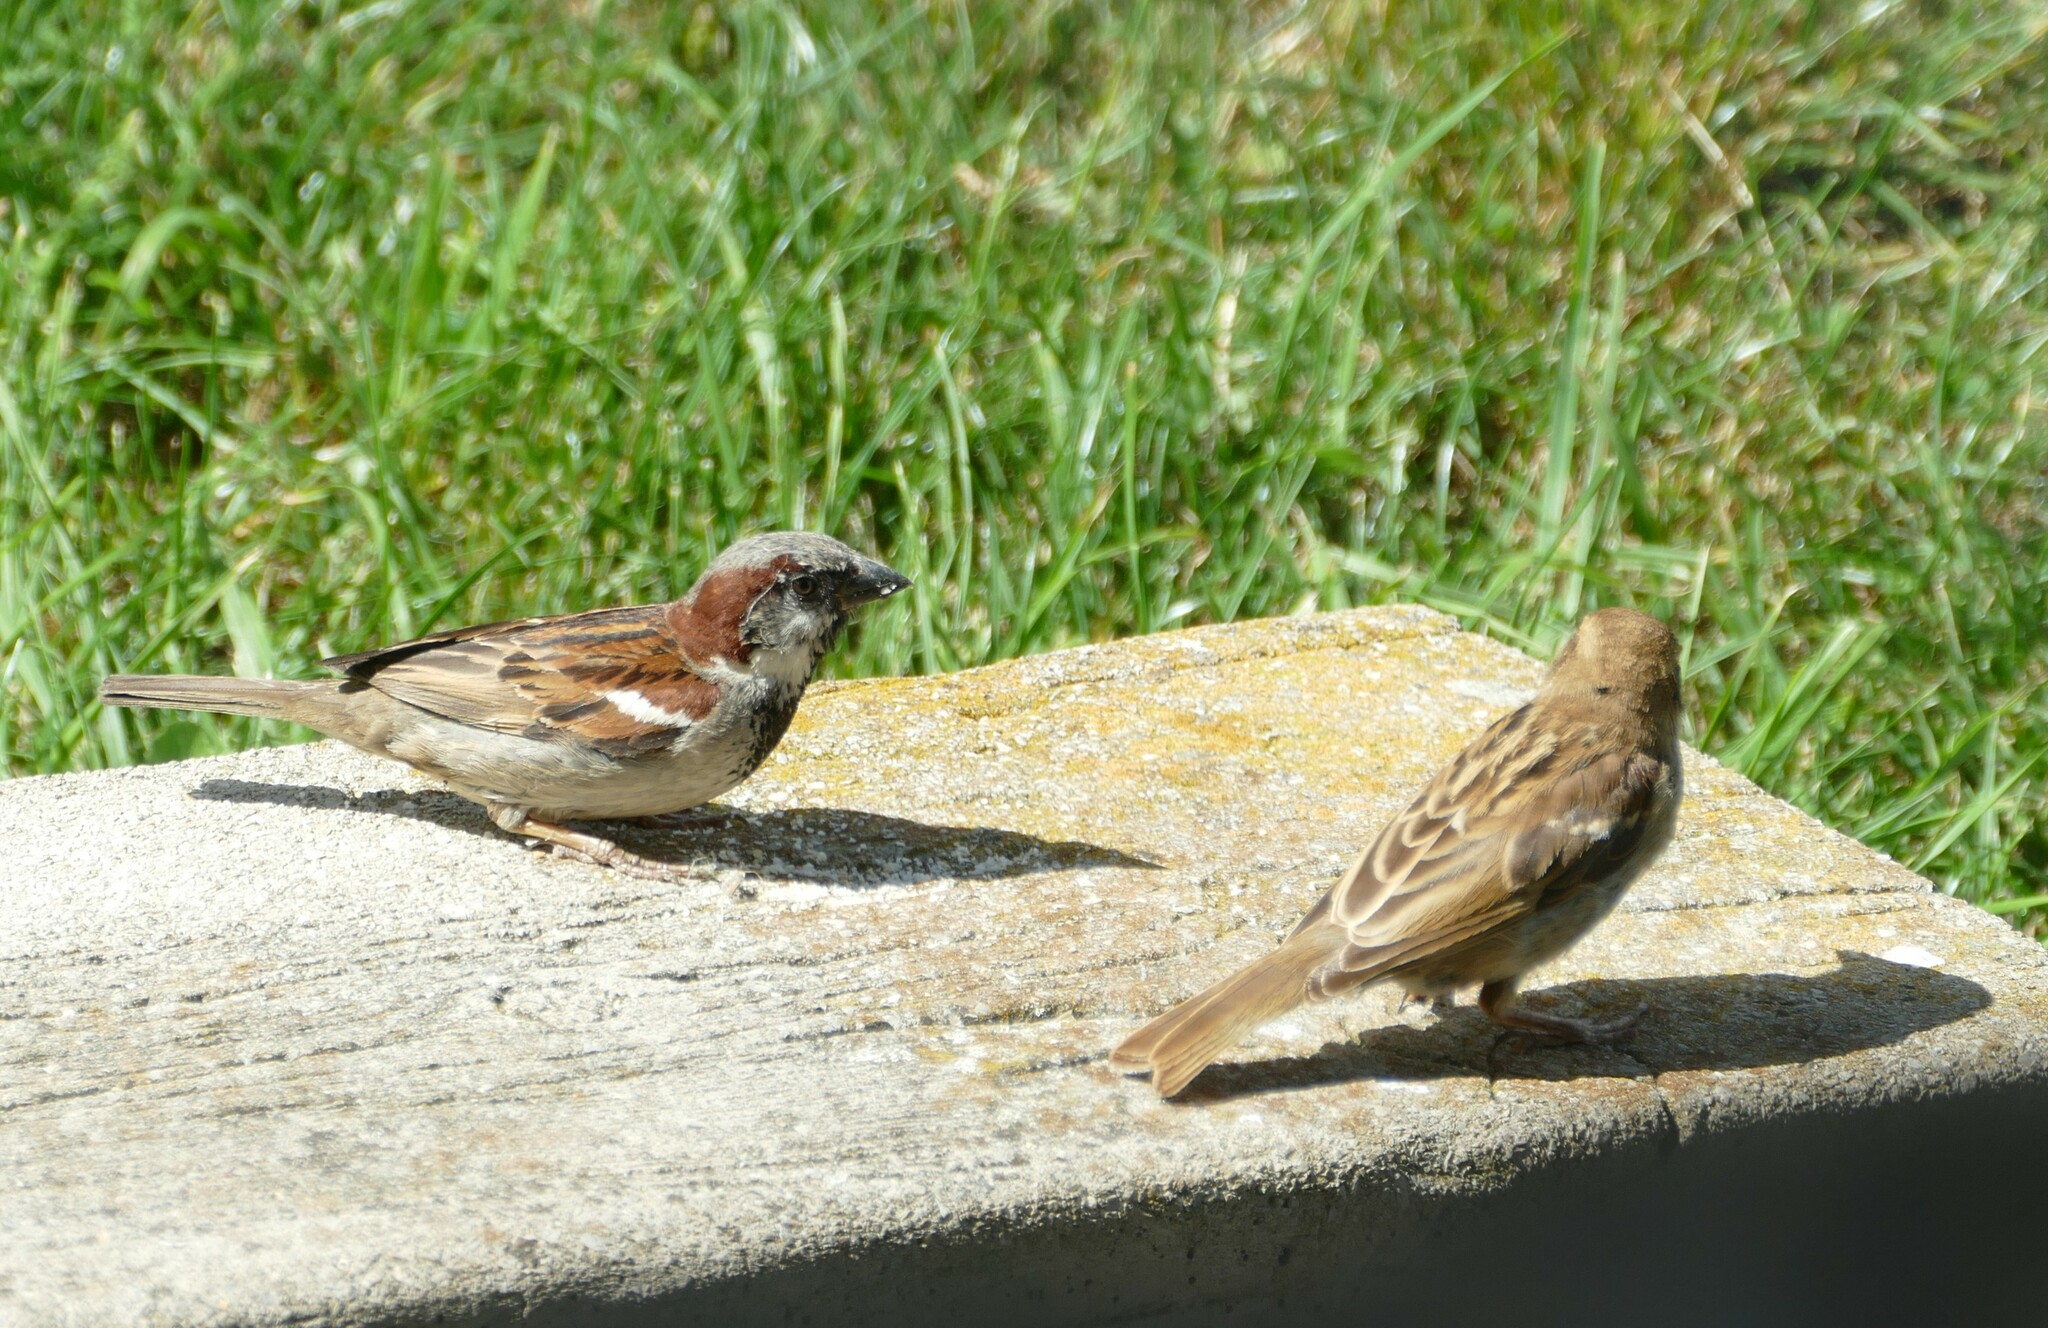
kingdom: Animalia
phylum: Chordata
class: Aves
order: Passeriformes
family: Passeridae
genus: Passer
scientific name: Passer domesticus
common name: House sparrow
